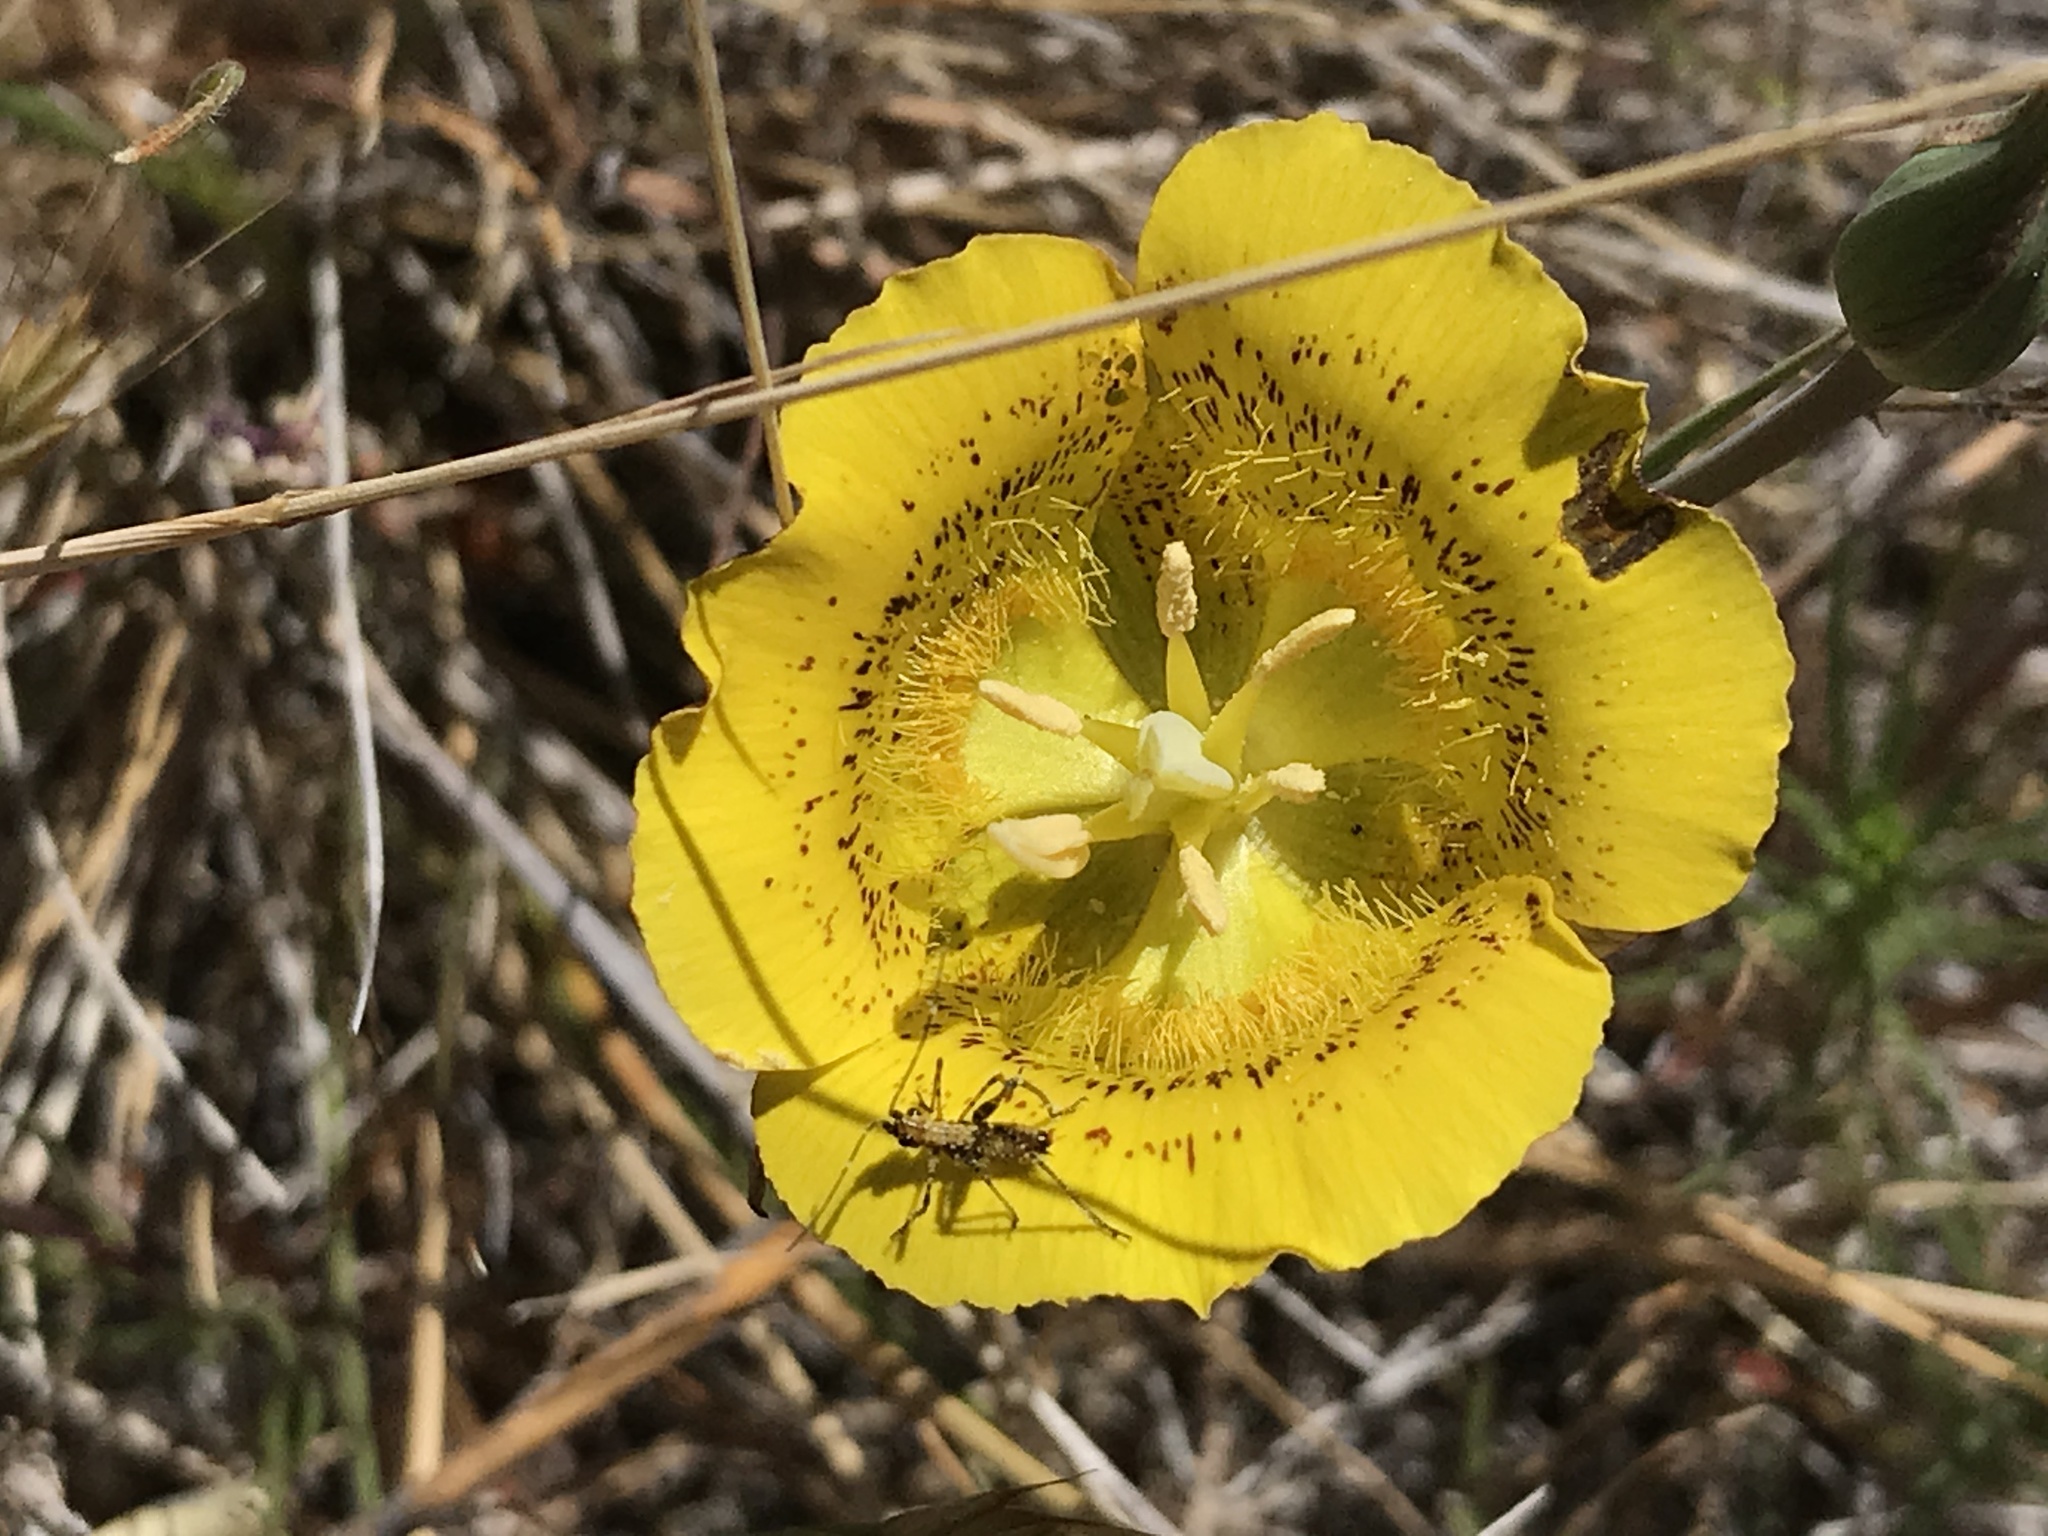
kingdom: Plantae
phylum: Tracheophyta
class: Liliopsida
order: Liliales
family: Liliaceae
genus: Calochortus
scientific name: Calochortus luteus
